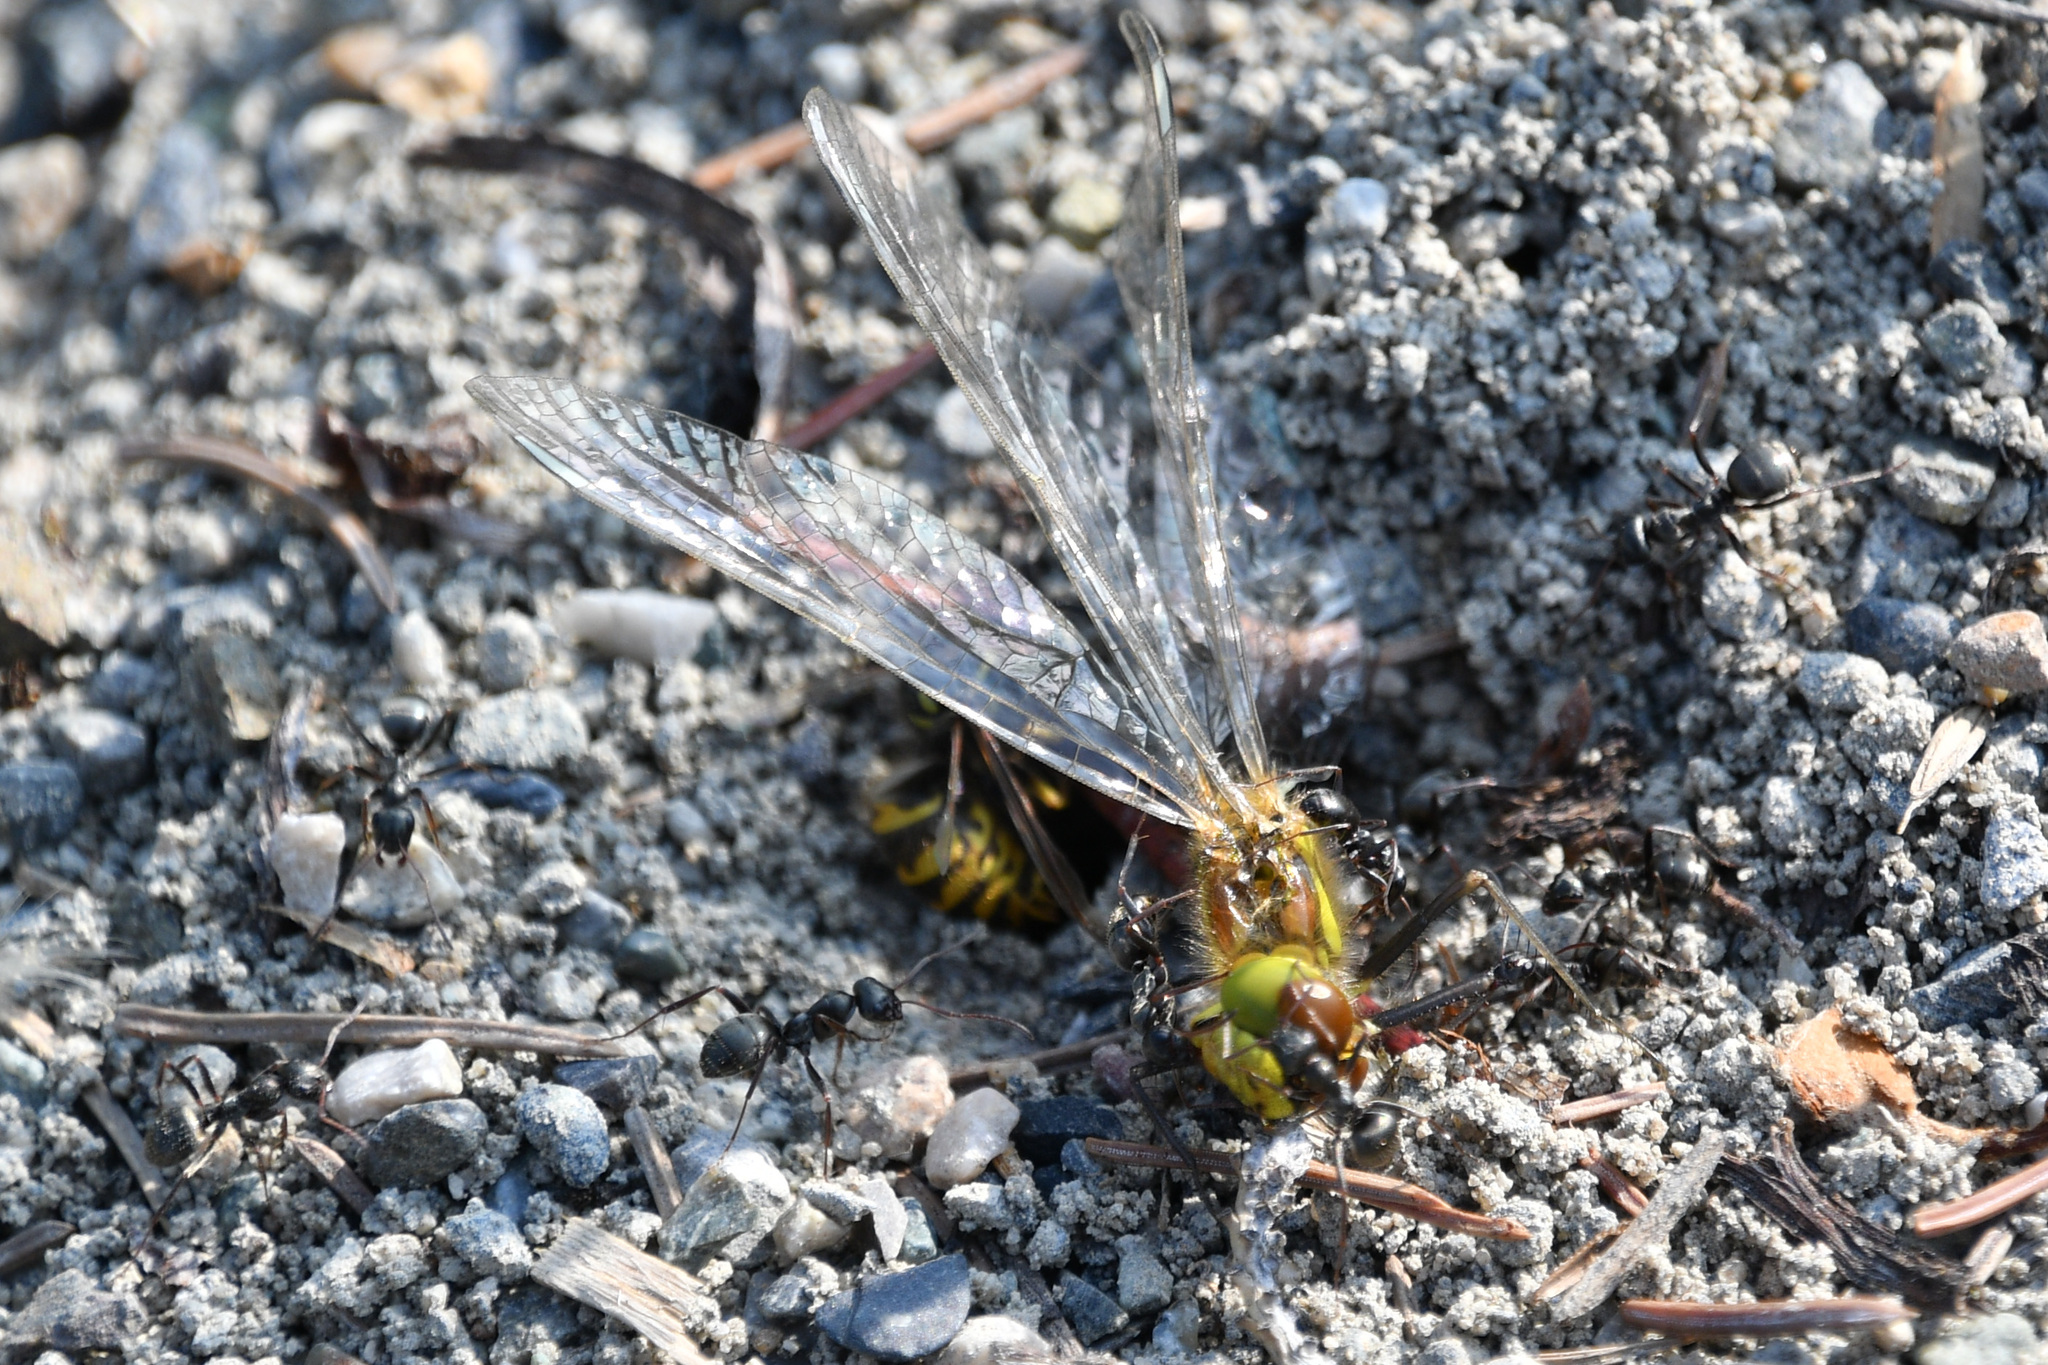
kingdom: Animalia
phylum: Arthropoda
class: Insecta
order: Odonata
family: Libellulidae
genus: Sympetrum
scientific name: Sympetrum danae
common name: Black darter
